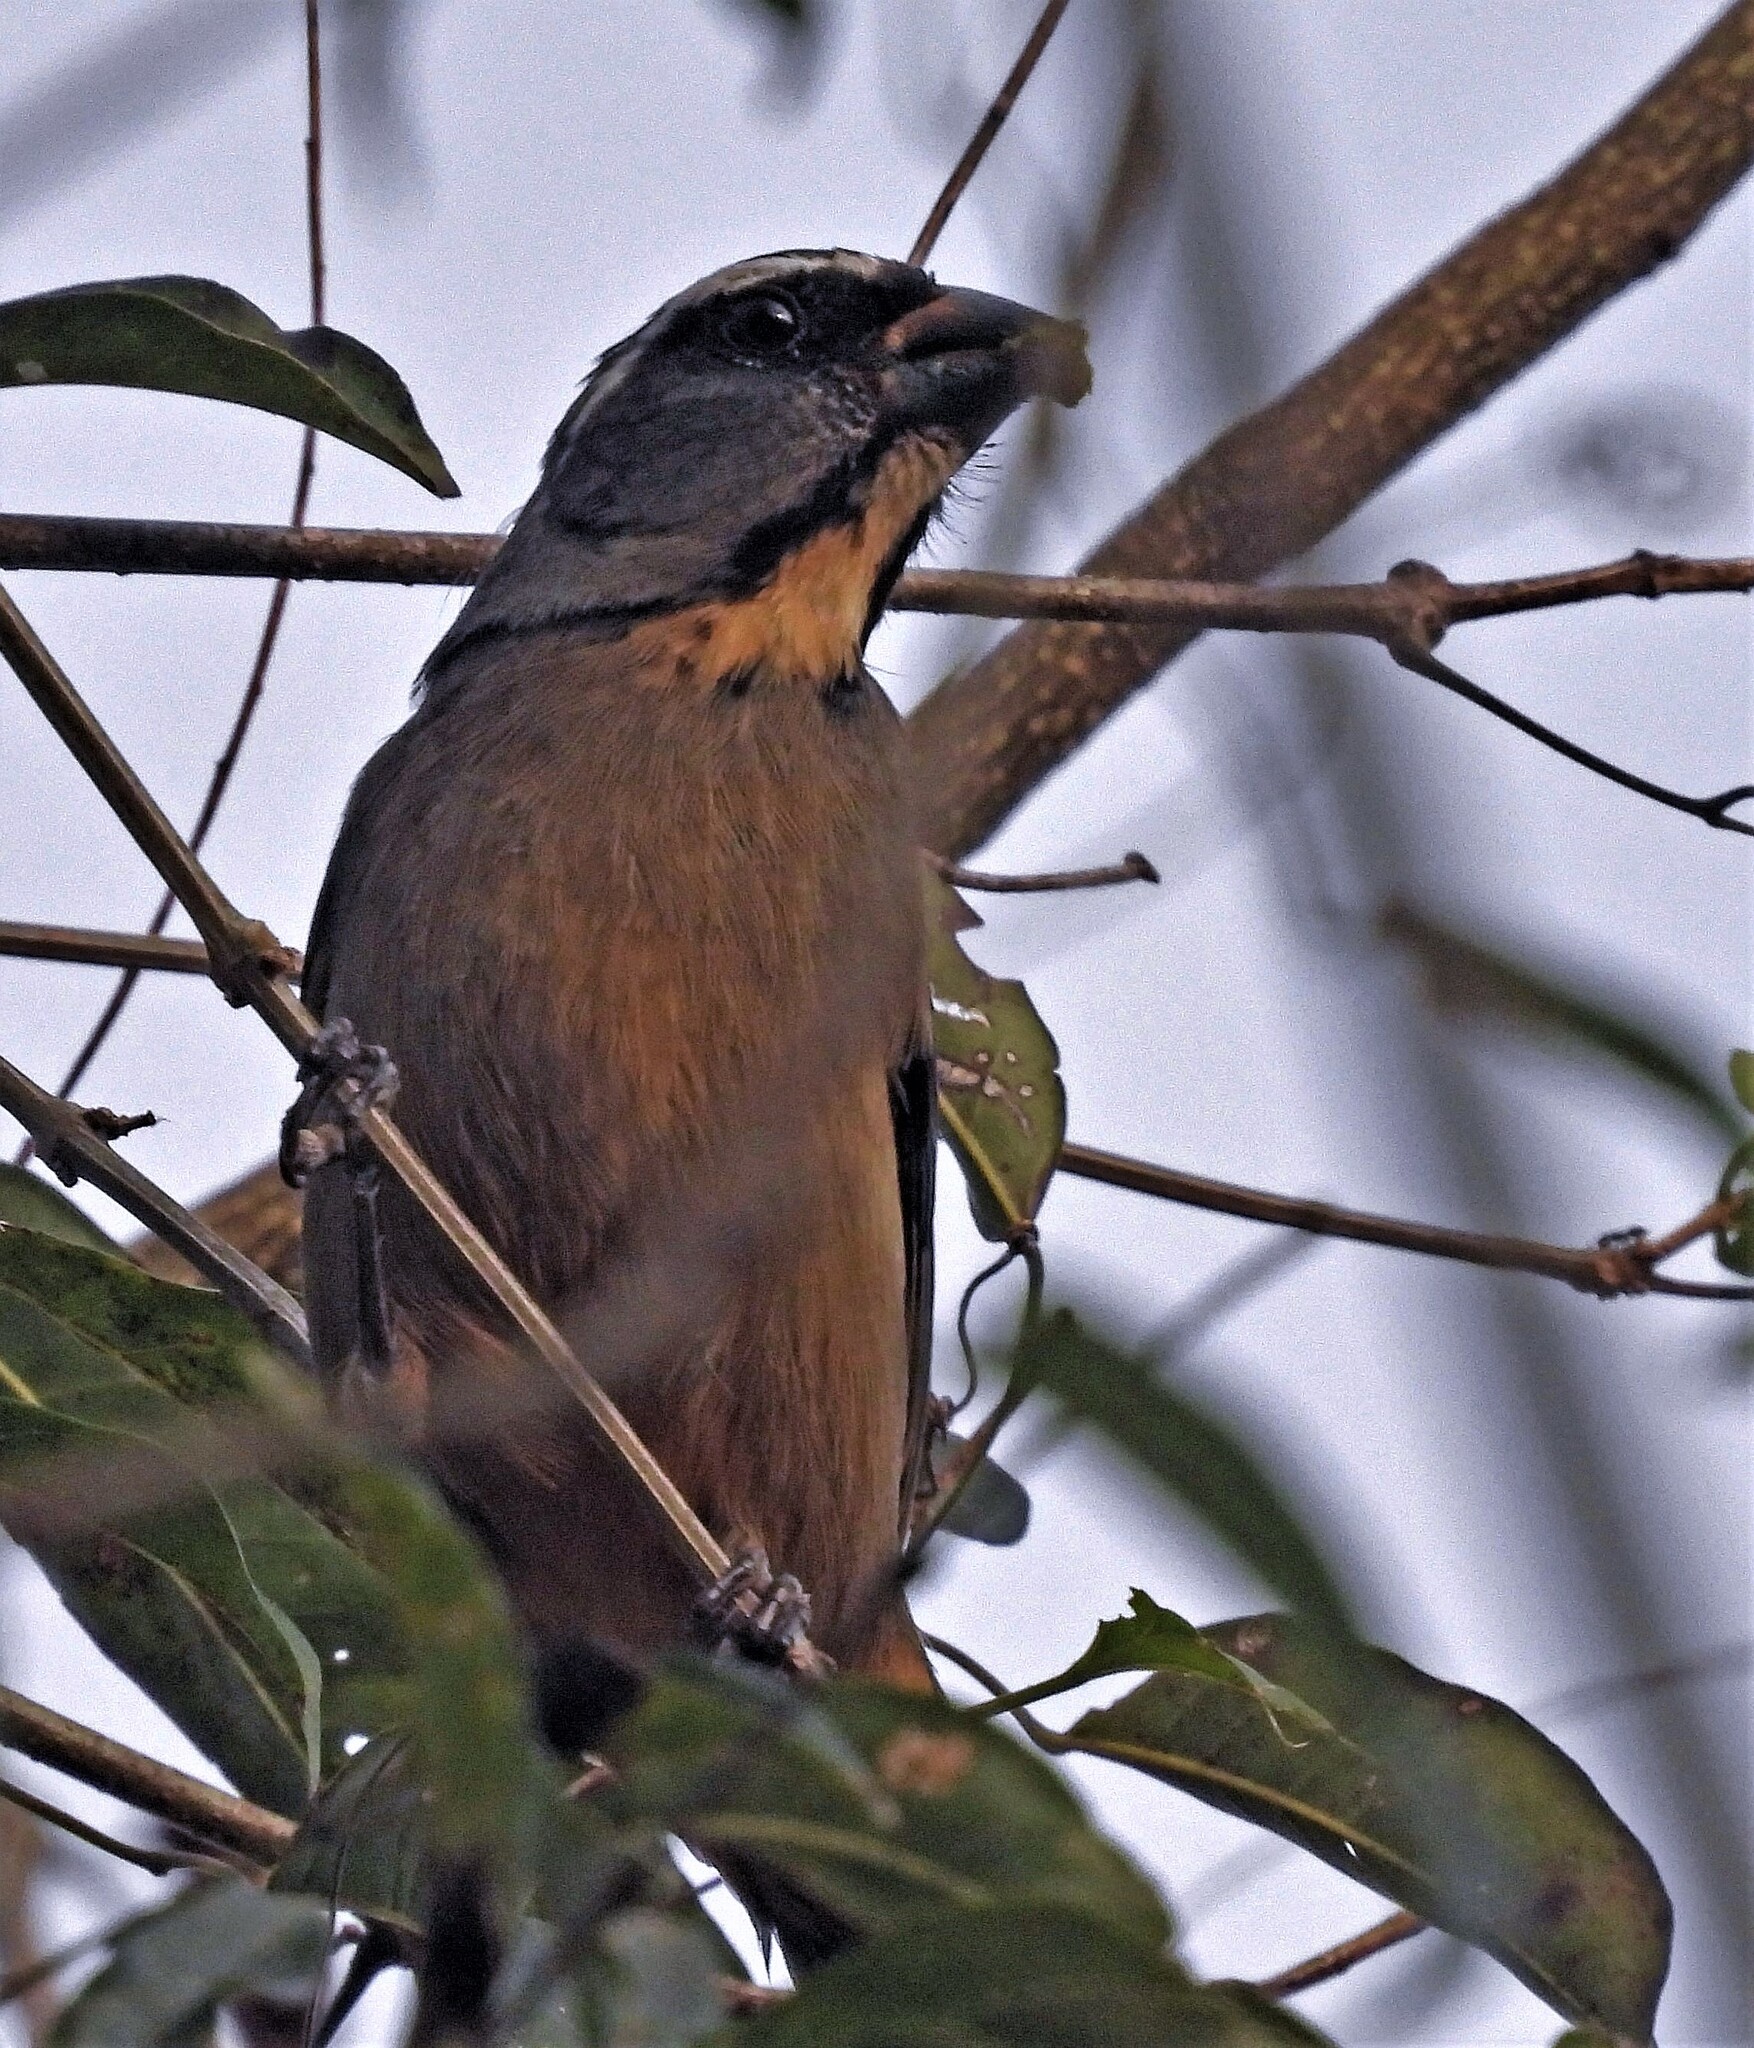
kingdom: Animalia
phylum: Chordata
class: Aves
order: Passeriformes
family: Thraupidae
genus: Saltator
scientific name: Saltator maxillosus
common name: Thick-billed saltator
